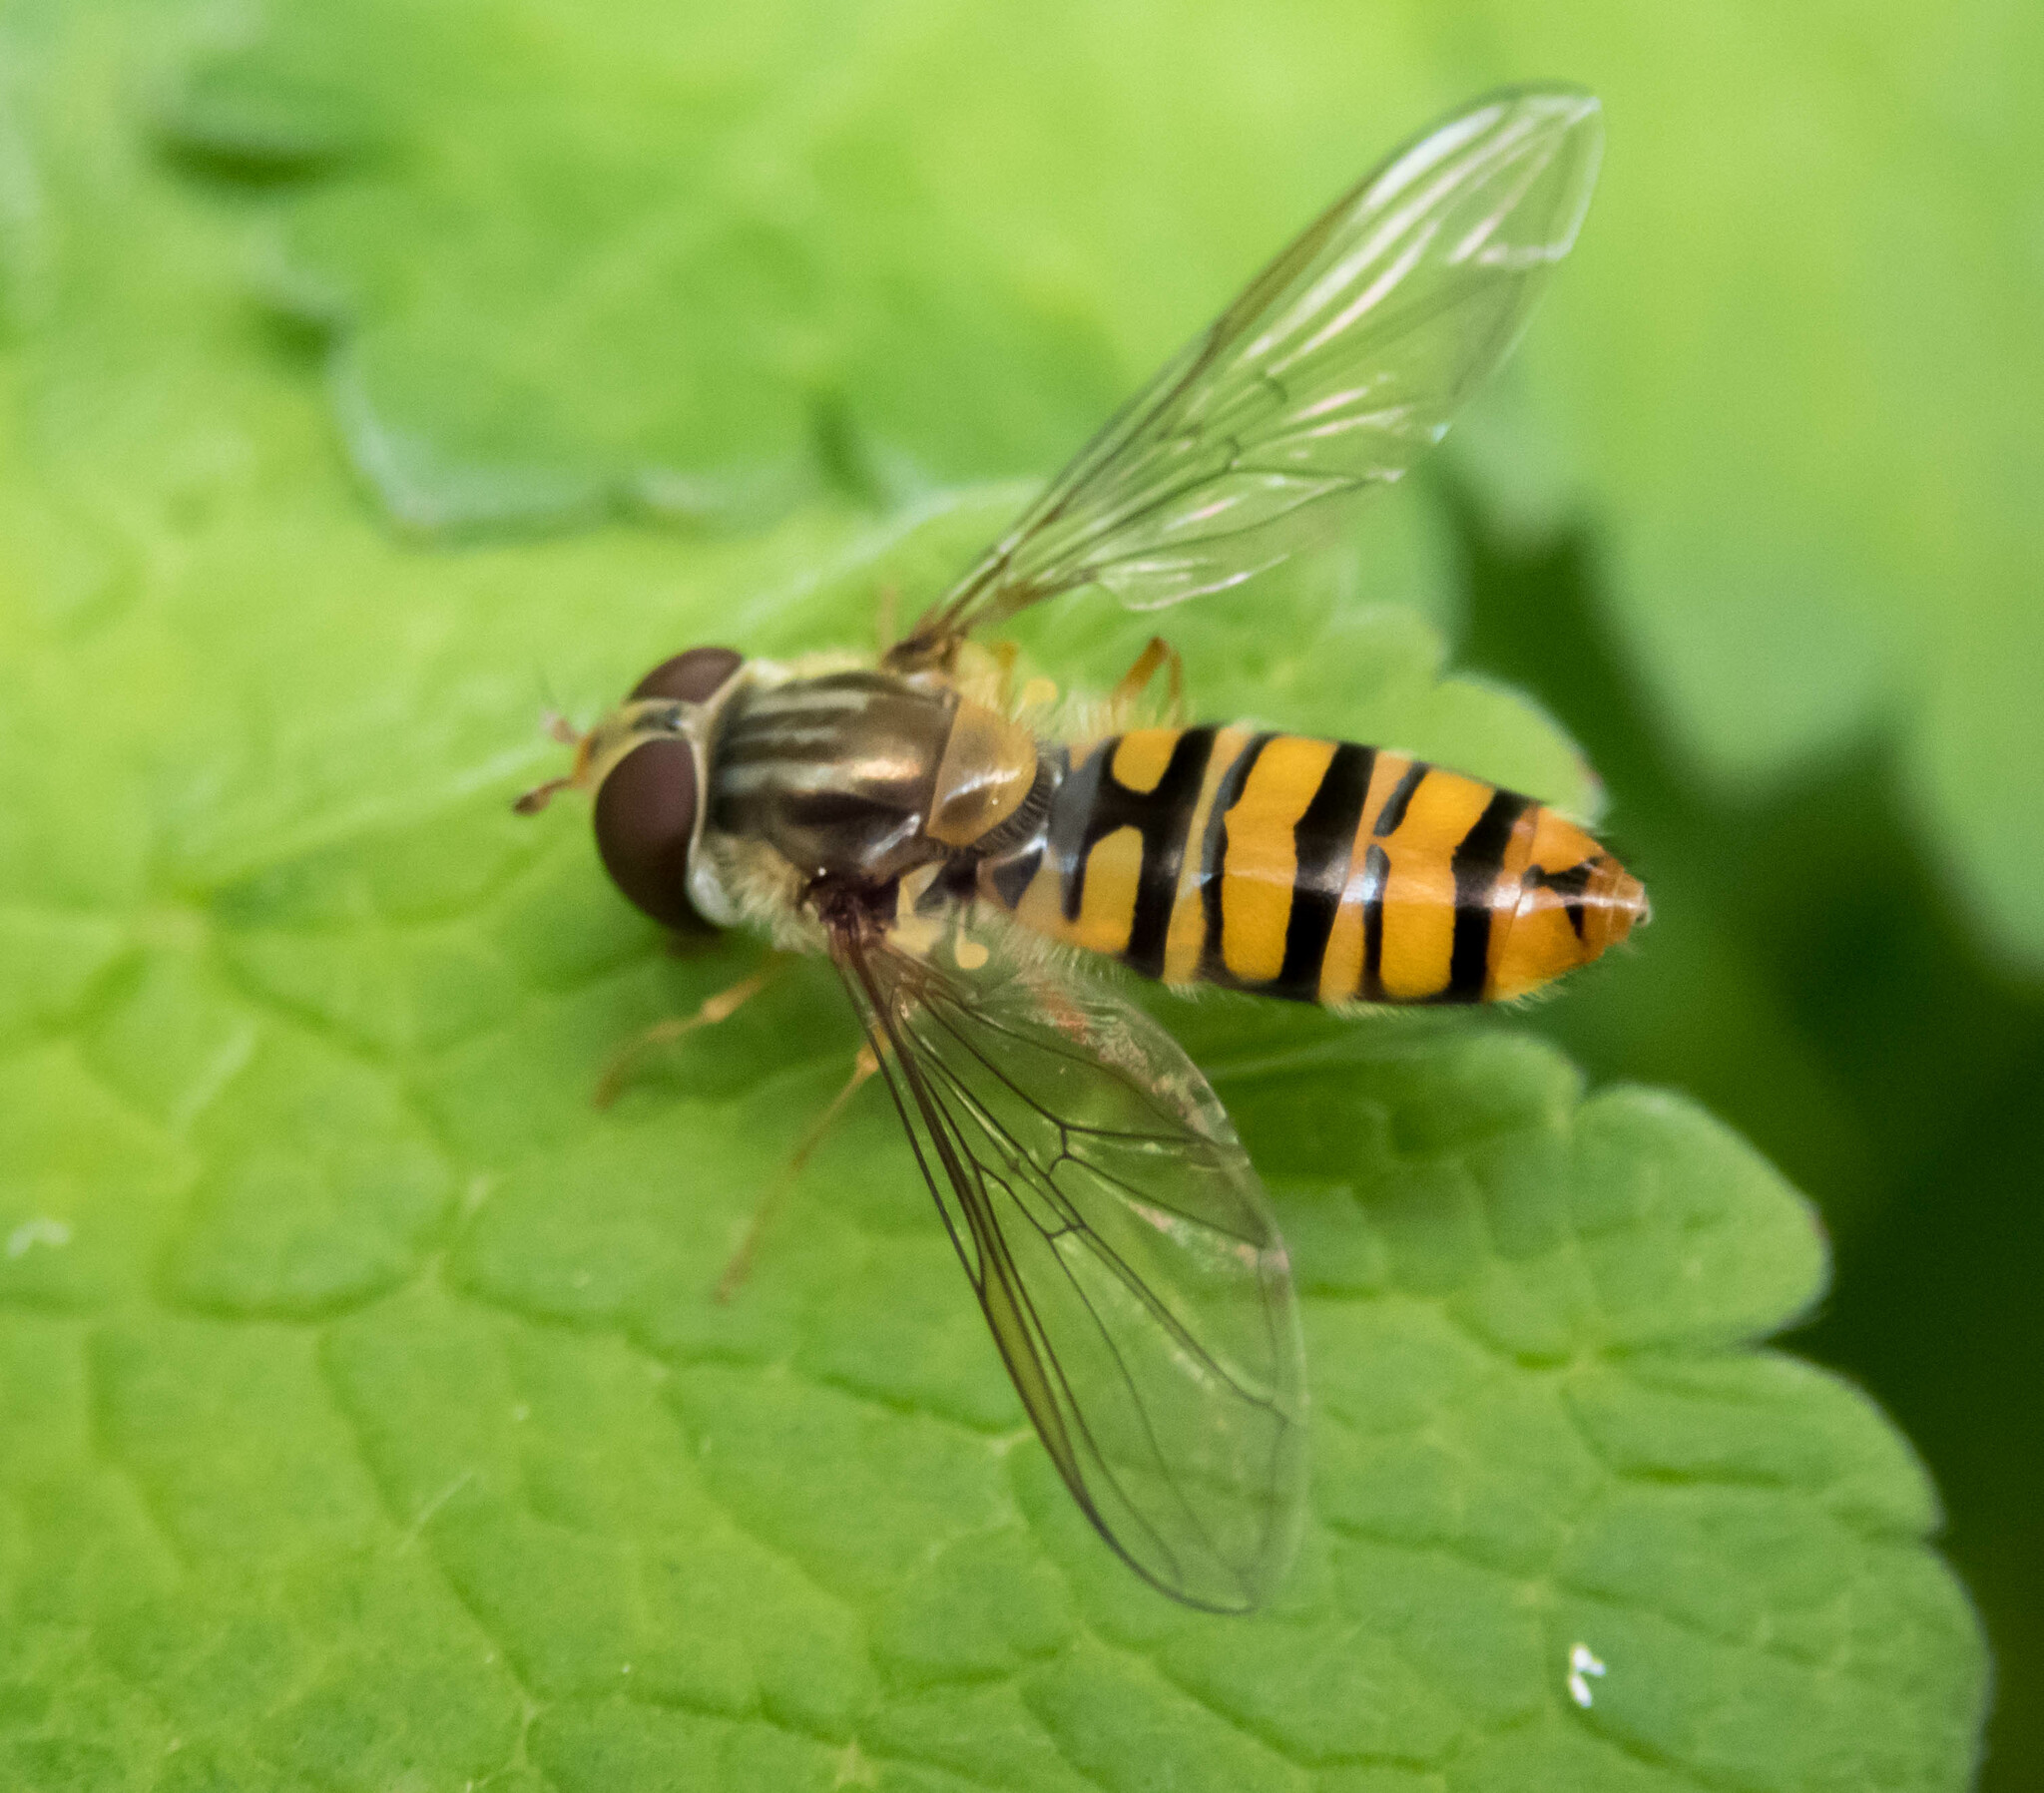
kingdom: Animalia
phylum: Arthropoda
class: Insecta
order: Diptera
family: Syrphidae
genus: Episyrphus
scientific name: Episyrphus balteatus
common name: Marmalade hoverfly
